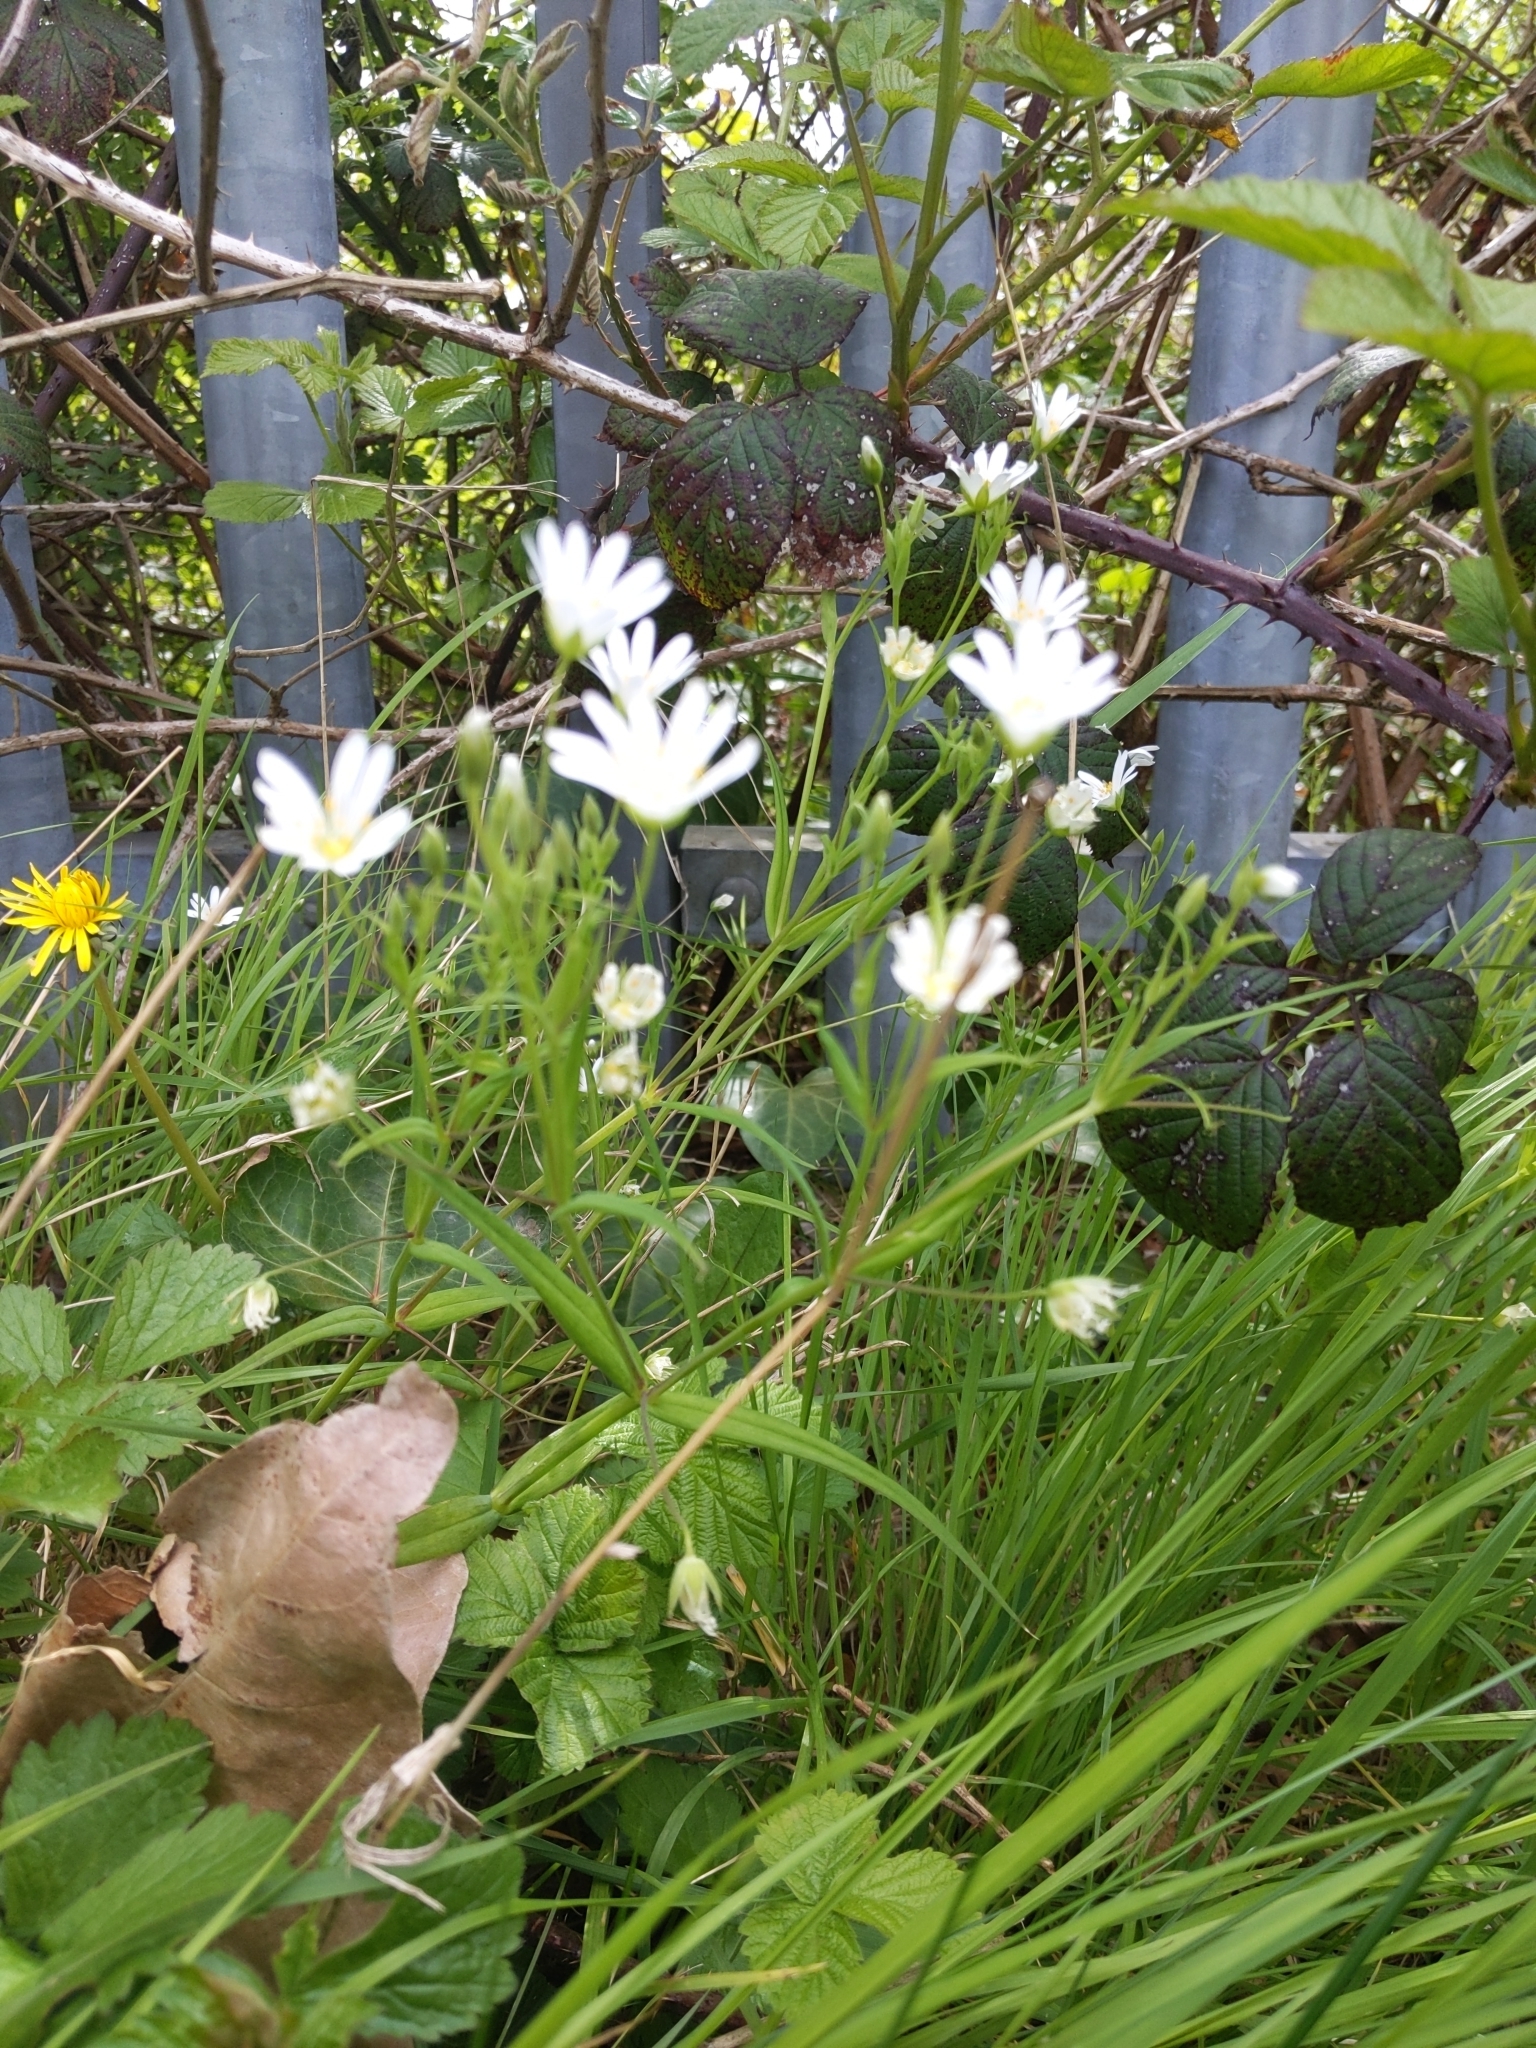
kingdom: Plantae
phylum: Tracheophyta
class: Magnoliopsida
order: Caryophyllales
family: Caryophyllaceae
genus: Rabelera
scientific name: Rabelera holostea
